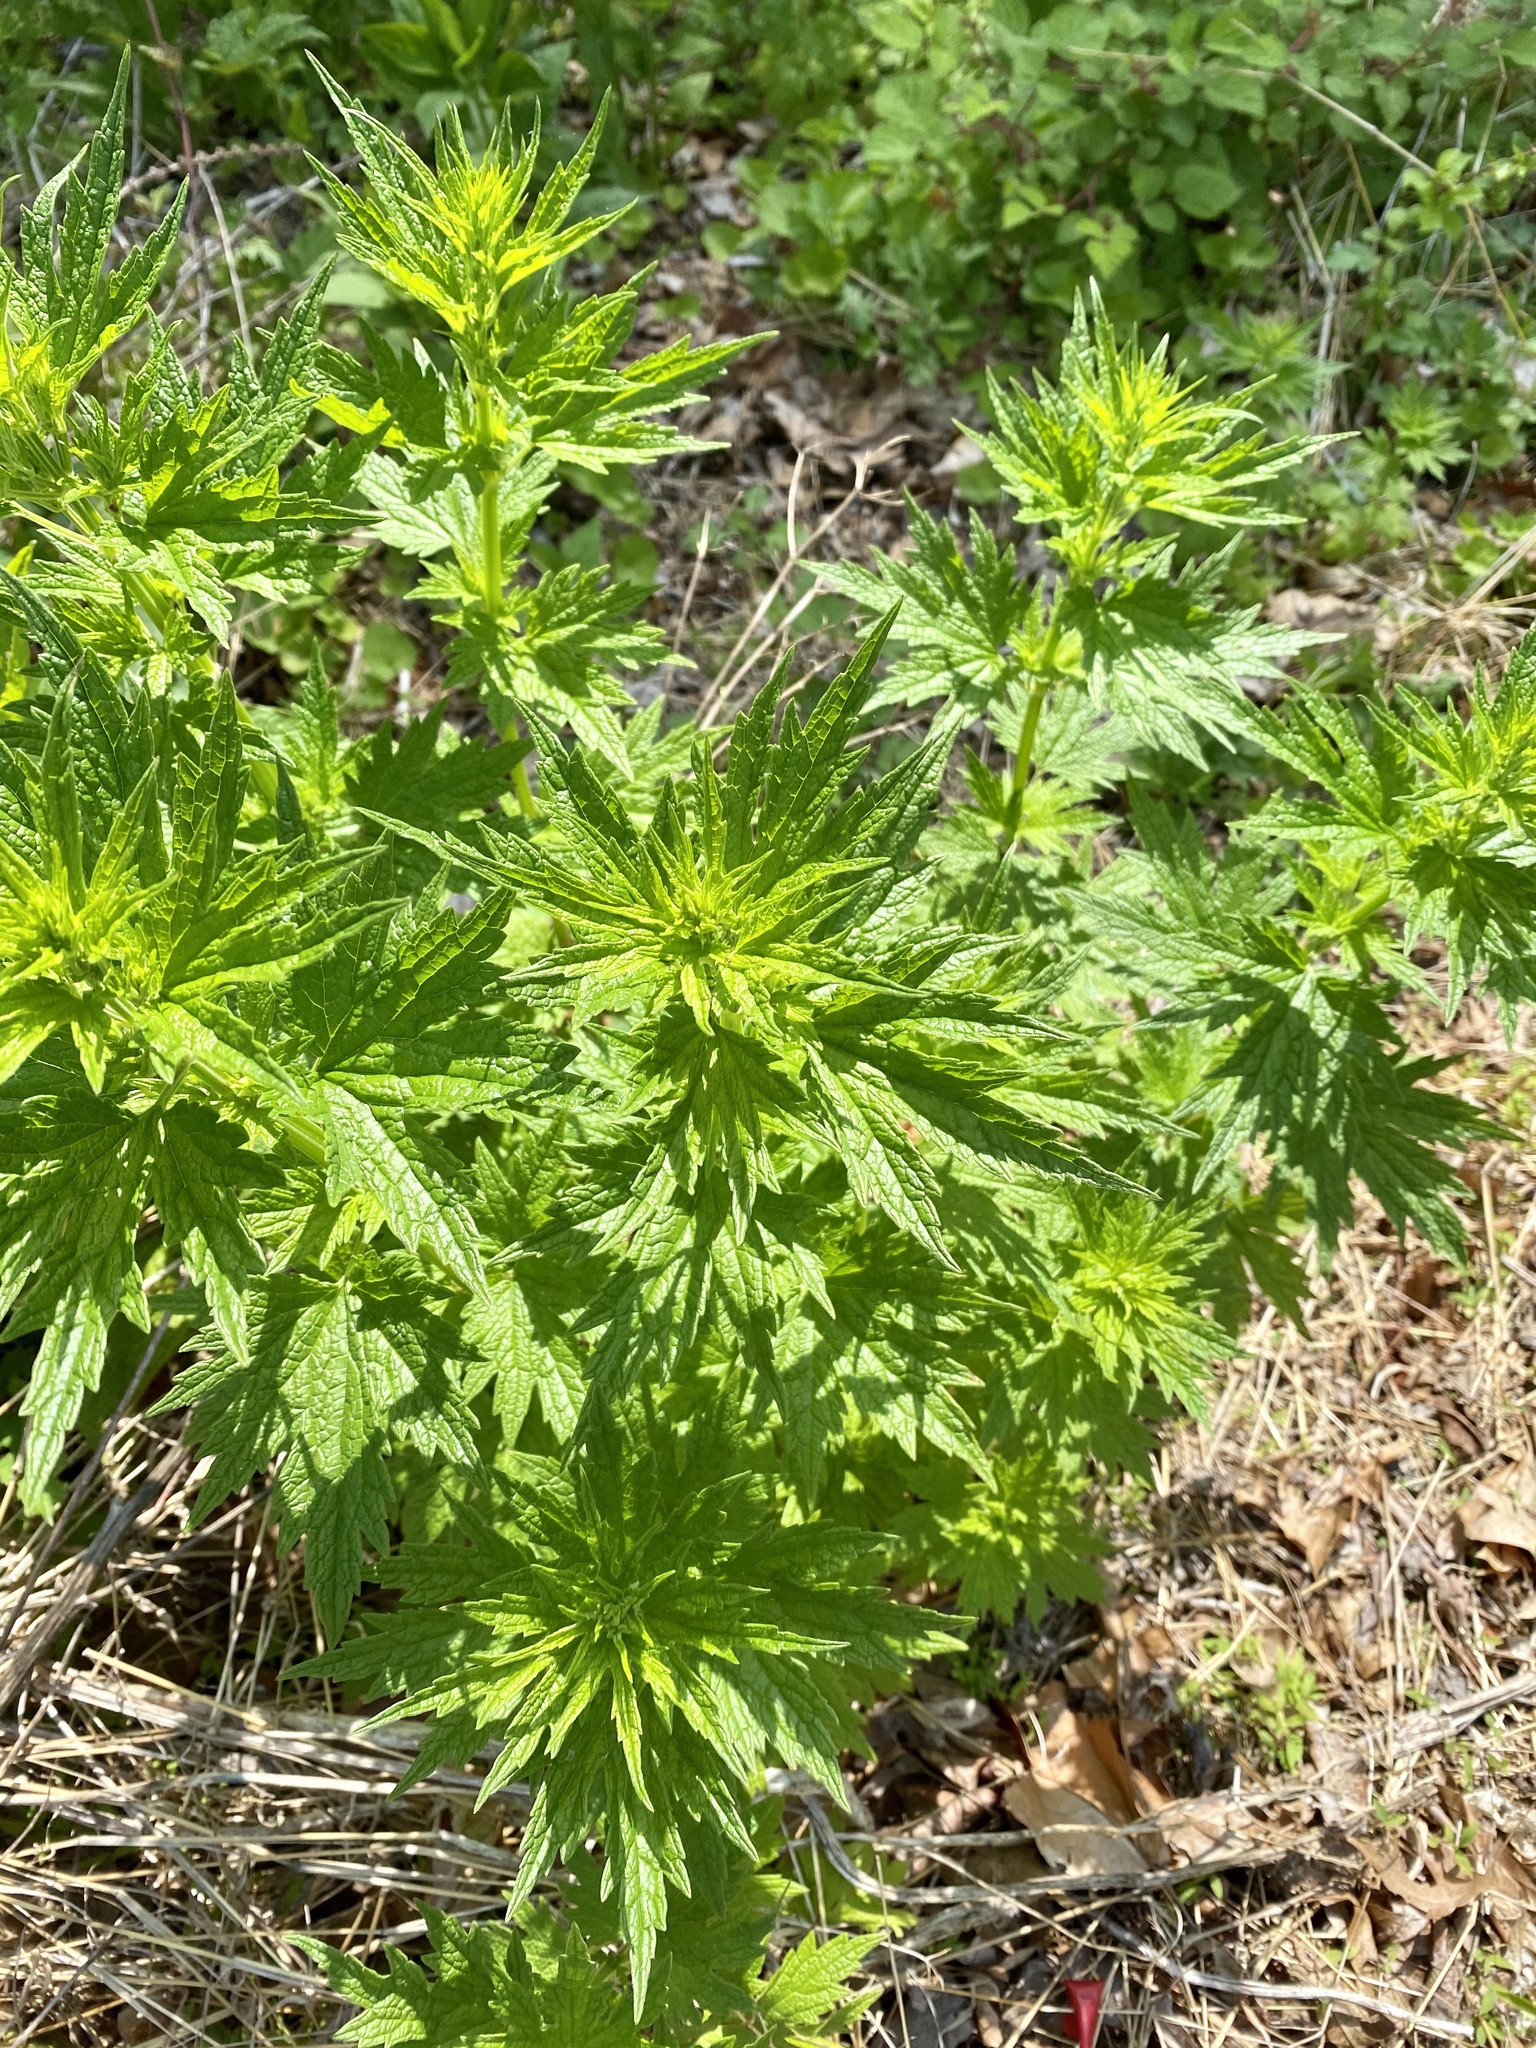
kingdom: Plantae
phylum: Tracheophyta
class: Magnoliopsida
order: Lamiales
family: Lamiaceae
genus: Leonurus
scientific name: Leonurus cardiaca
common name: Motherwort
